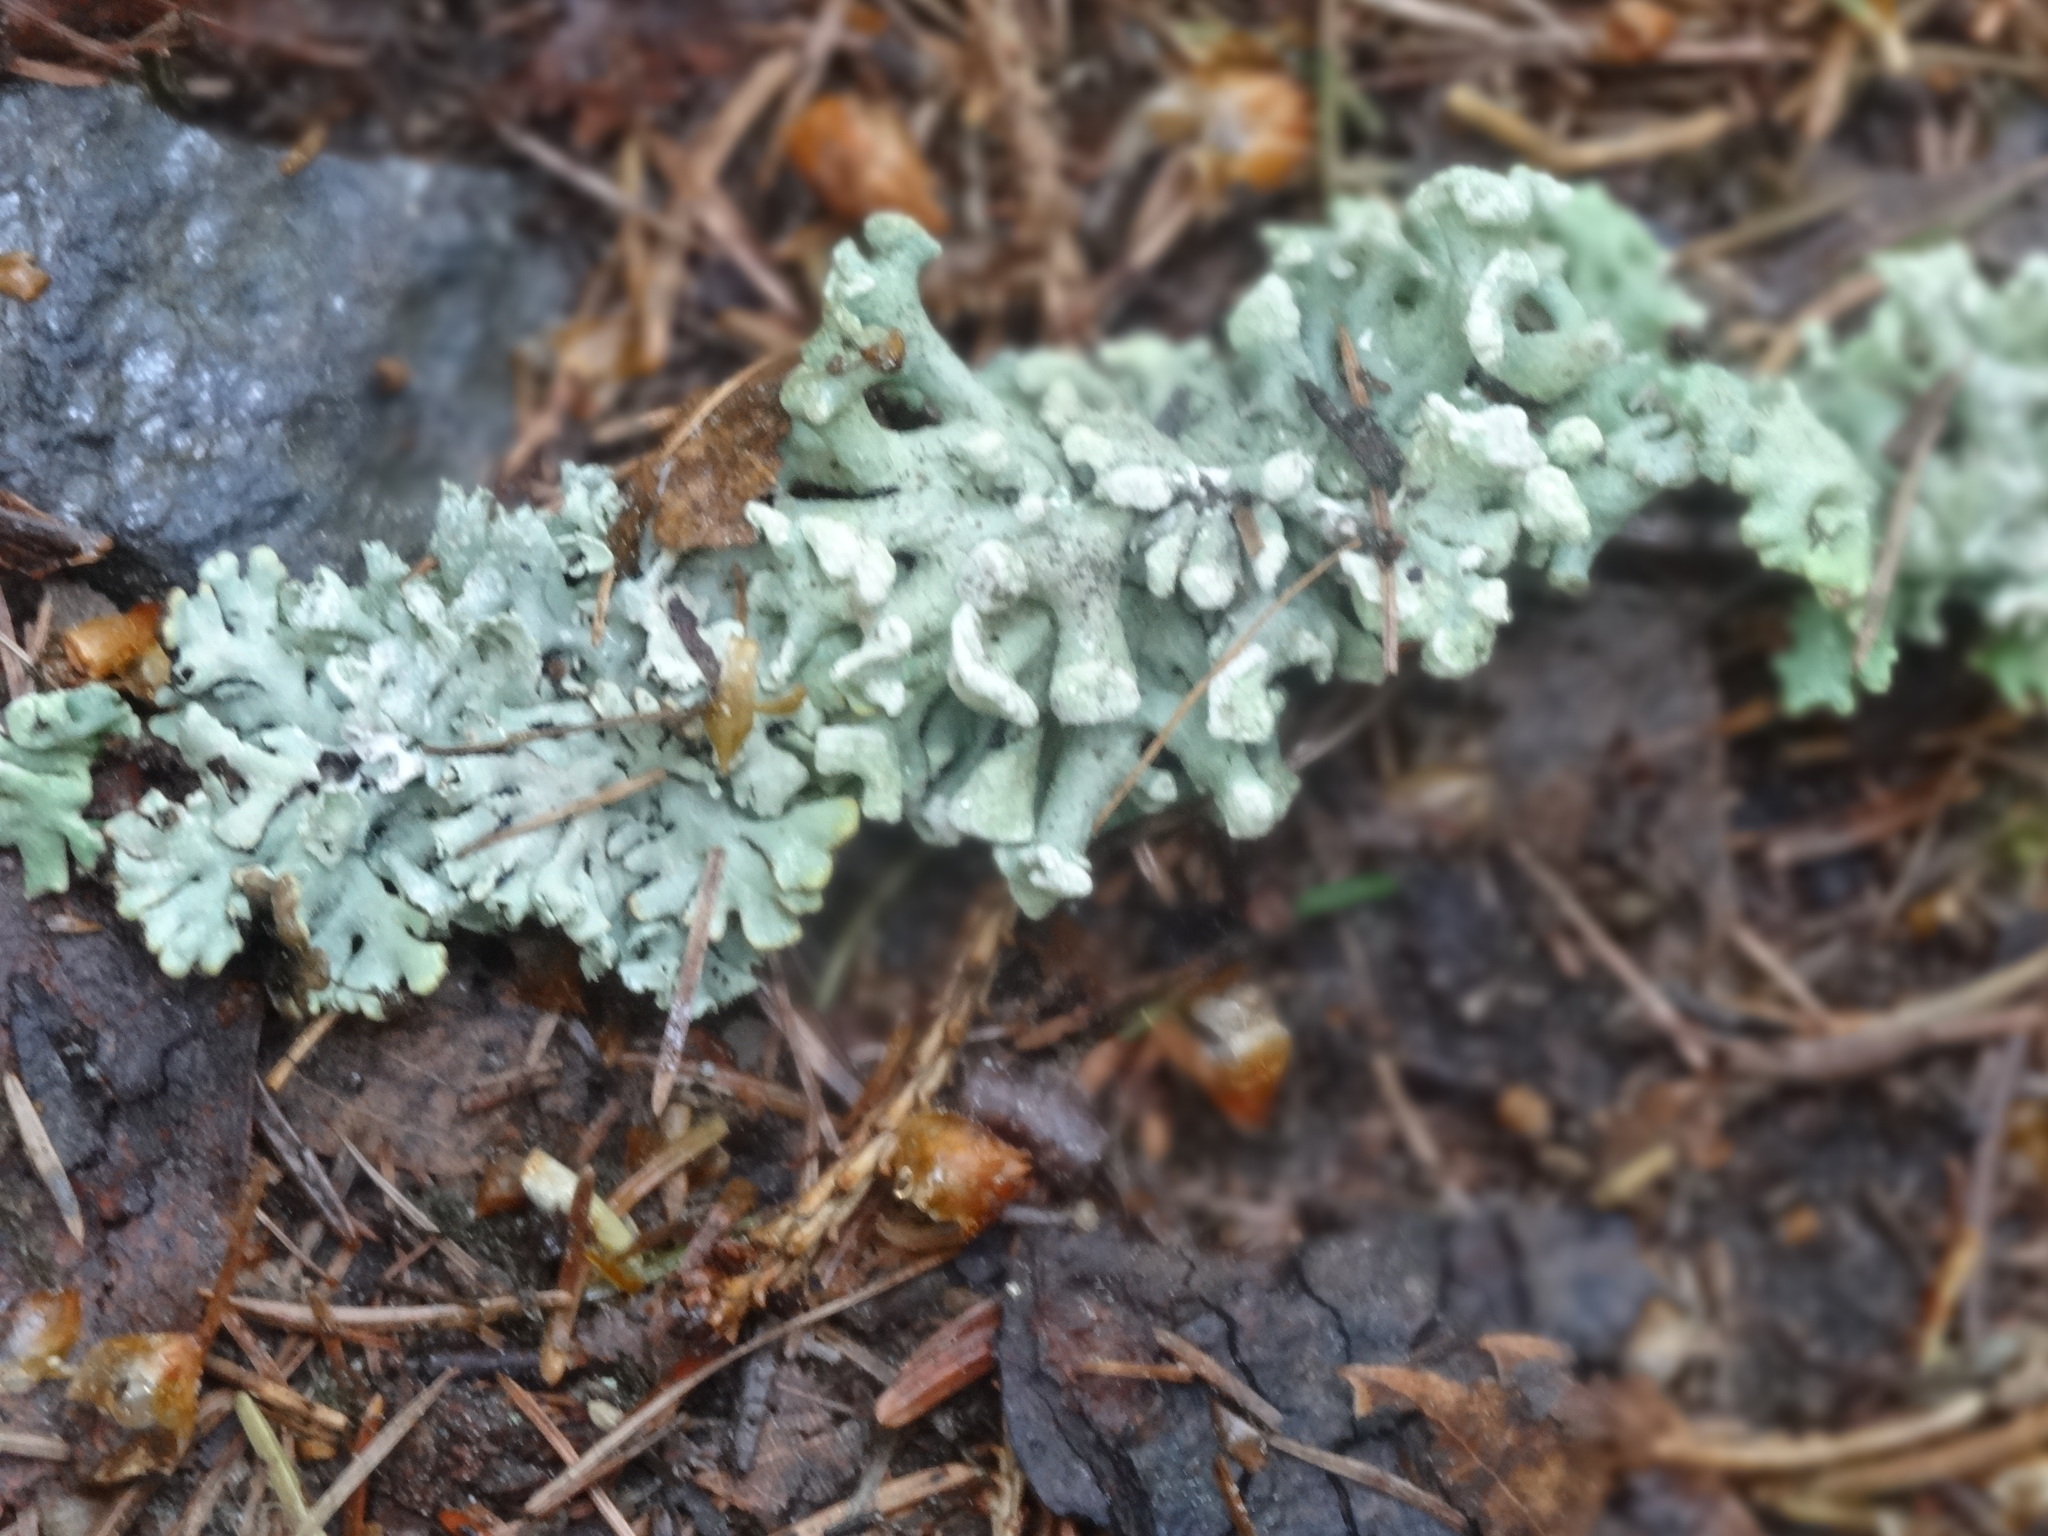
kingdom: Fungi
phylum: Ascomycota
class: Lecanoromycetes
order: Lecanorales
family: Parmeliaceae
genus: Hypogymnia
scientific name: Hypogymnia physodes
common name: Dark crottle
